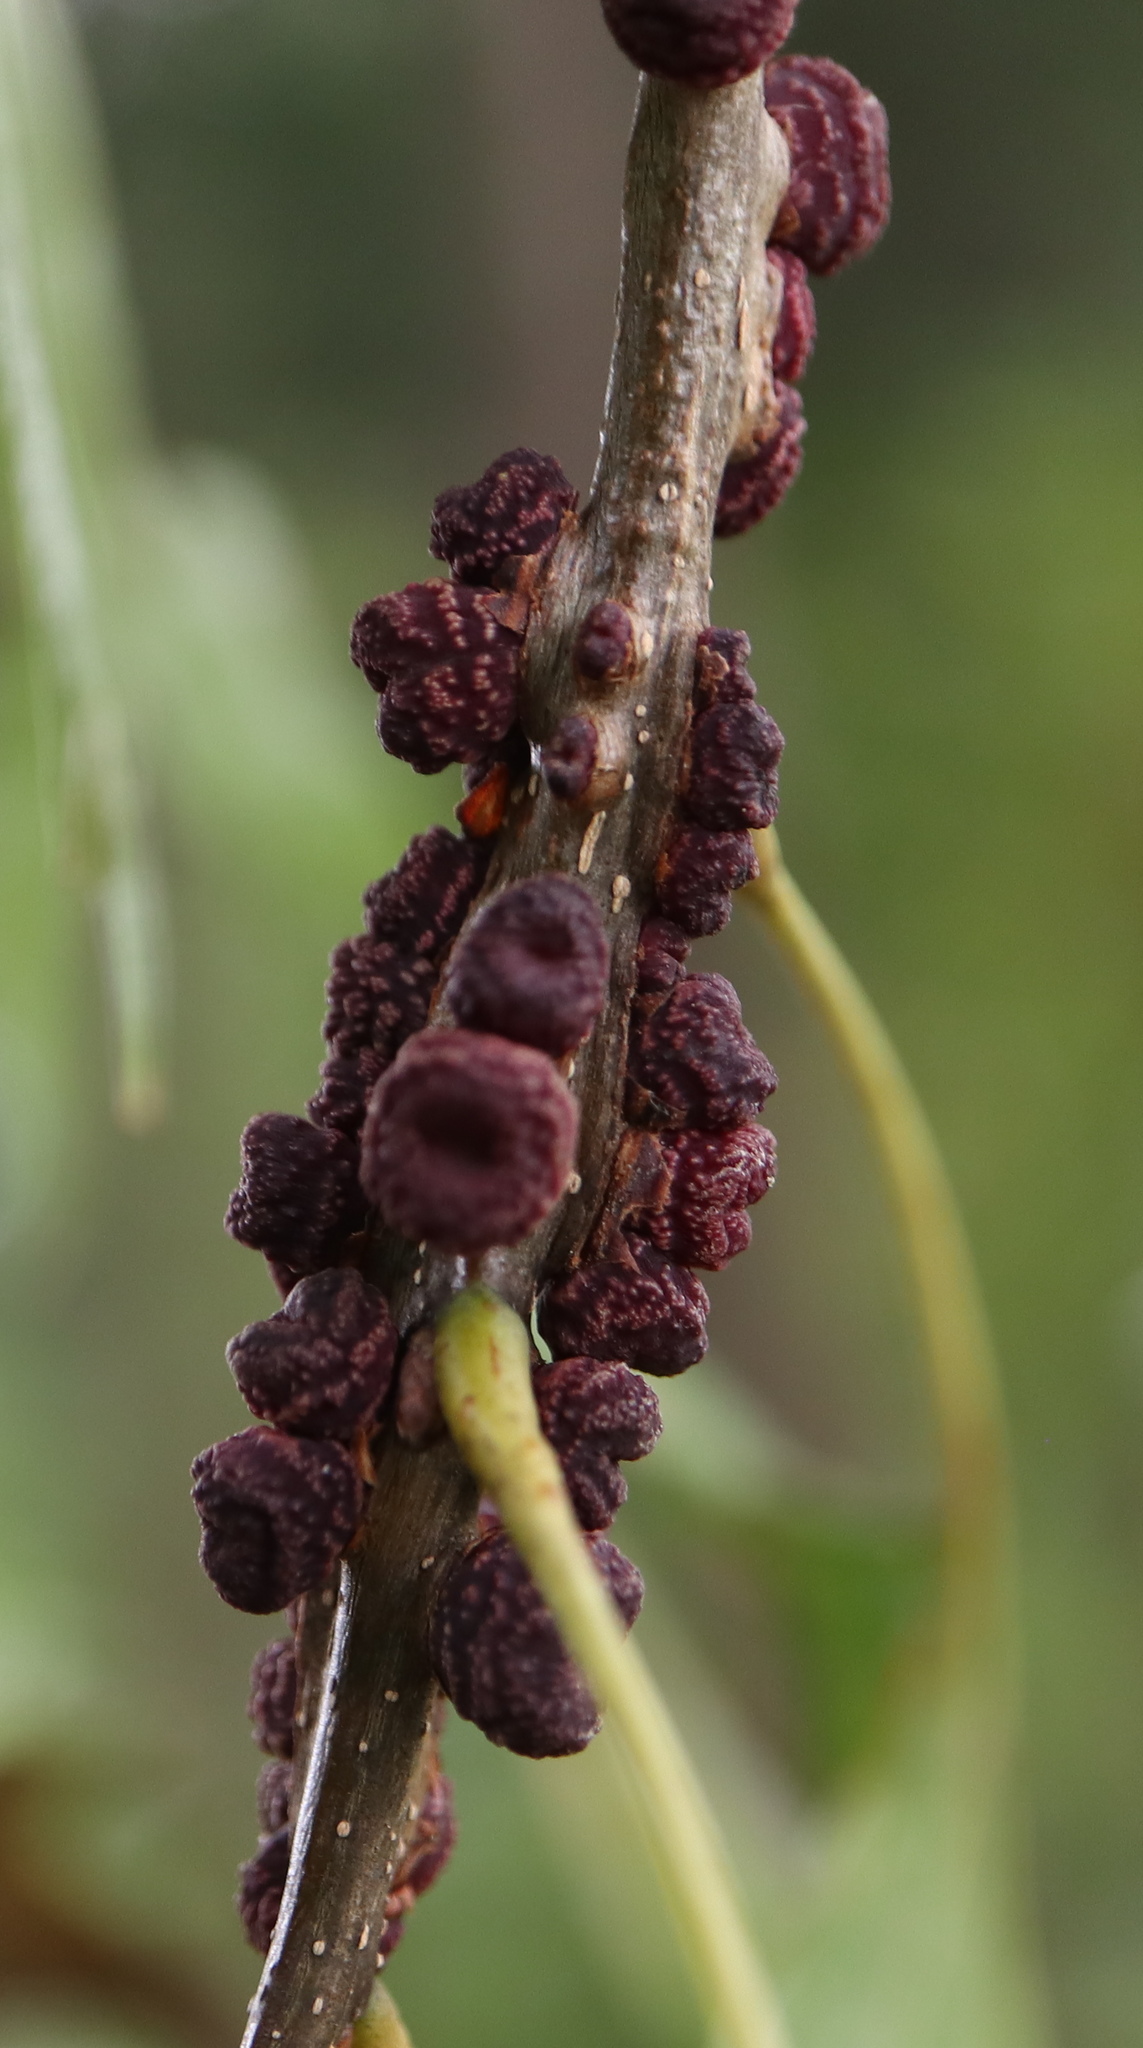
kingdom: Animalia
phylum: Arthropoda
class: Insecta
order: Hymenoptera
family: Cynipidae
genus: Kokkocynips
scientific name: Kokkocynips difficilis
